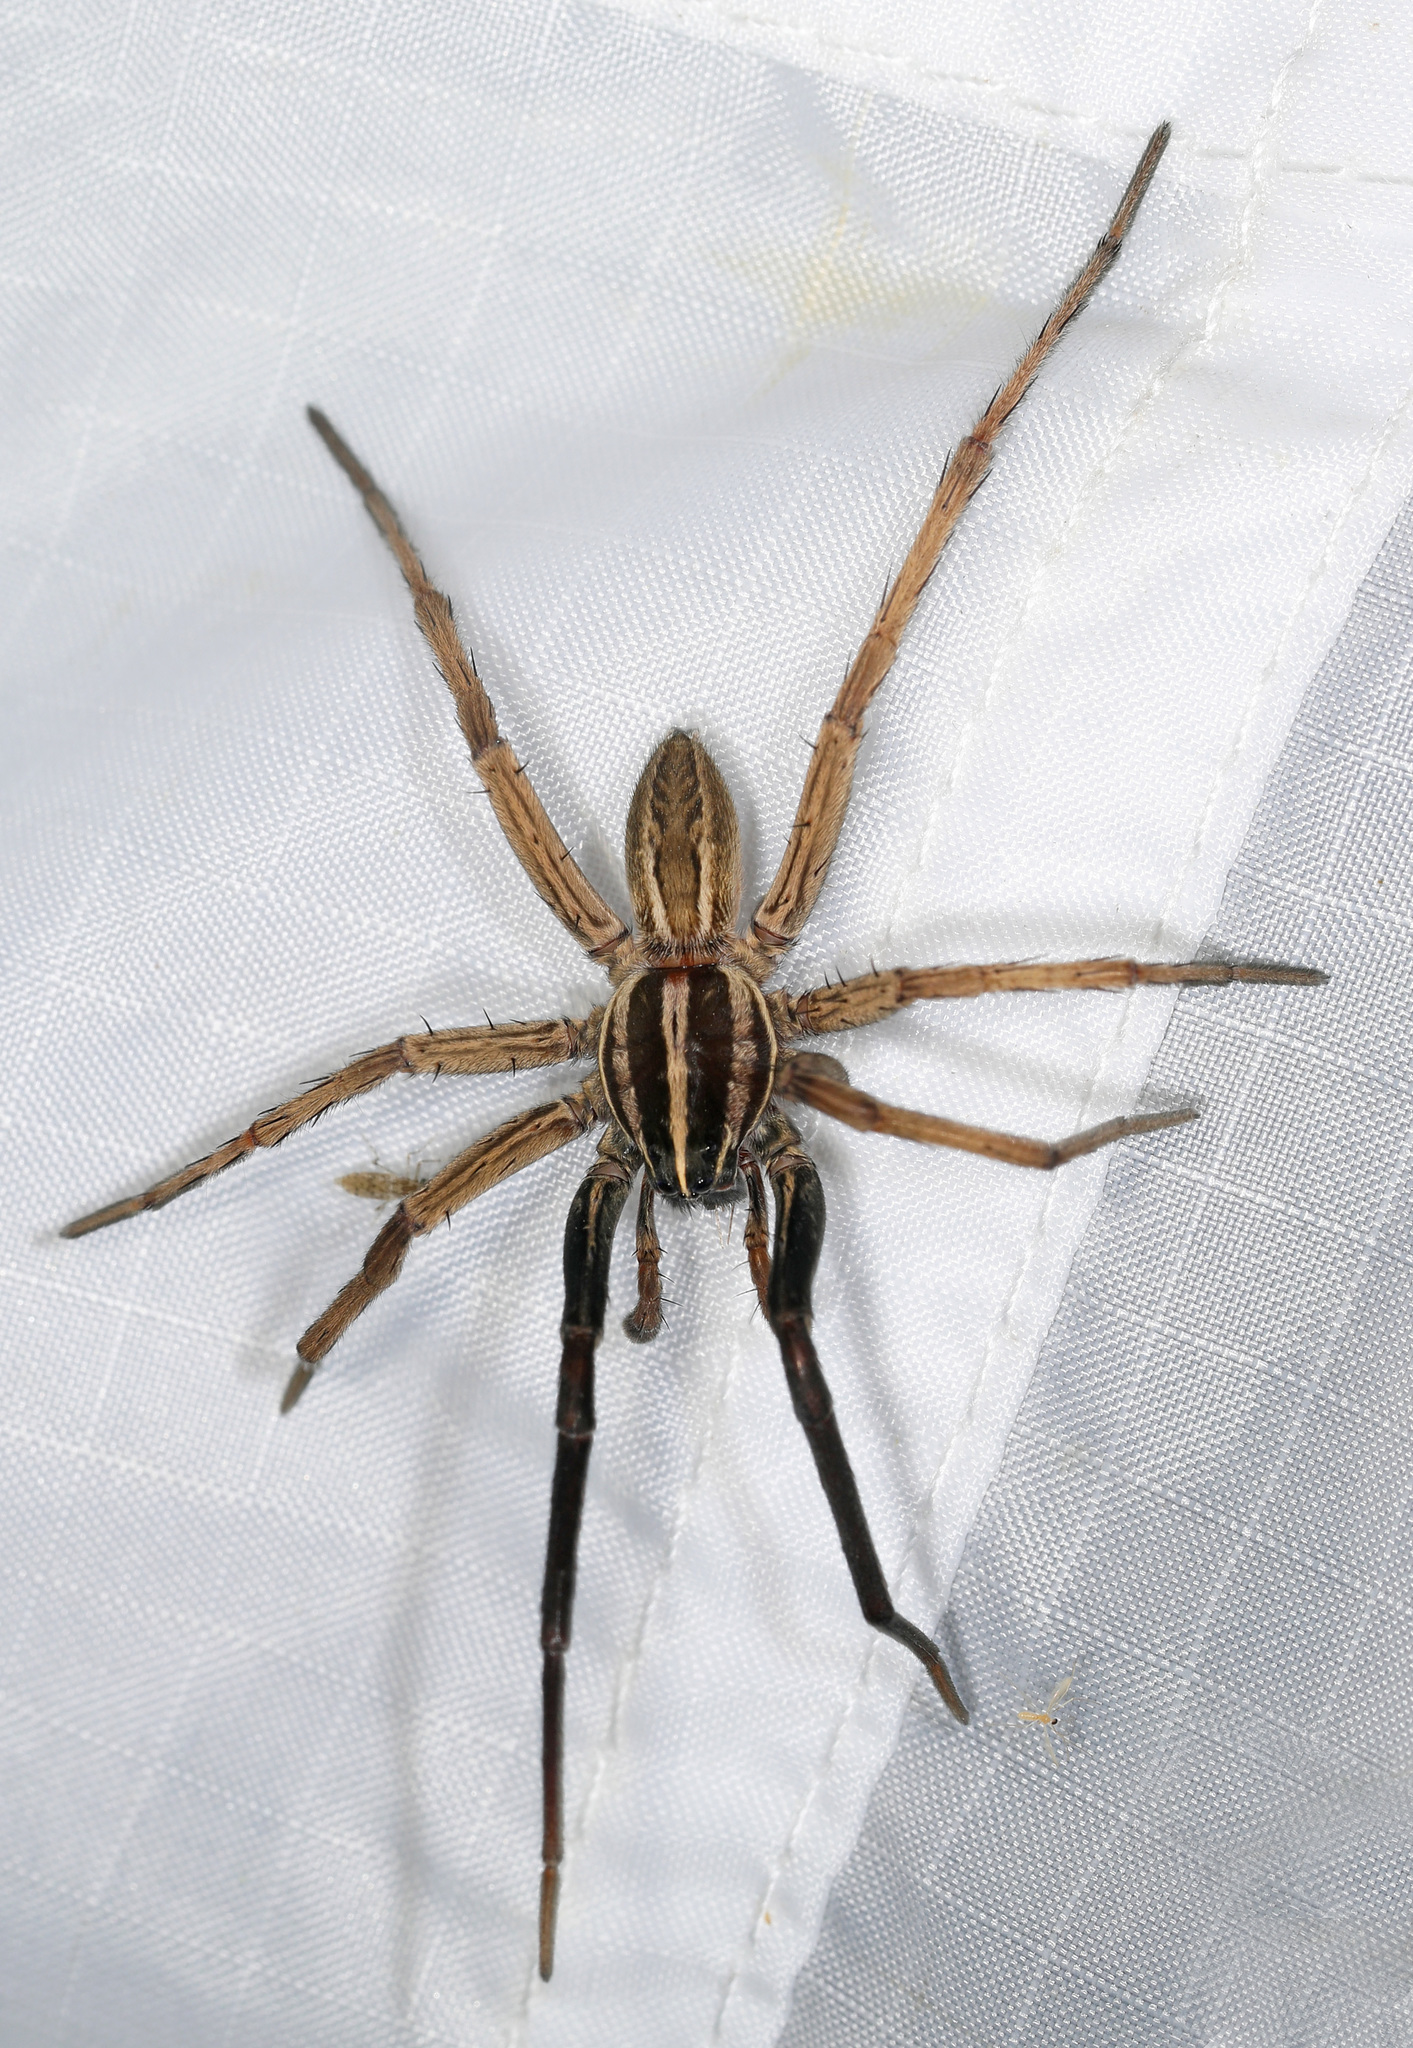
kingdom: Animalia
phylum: Arthropoda
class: Arachnida
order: Araneae
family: Lycosidae
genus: Rabidosa
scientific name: Rabidosa rabida
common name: Rabid wolf spider
